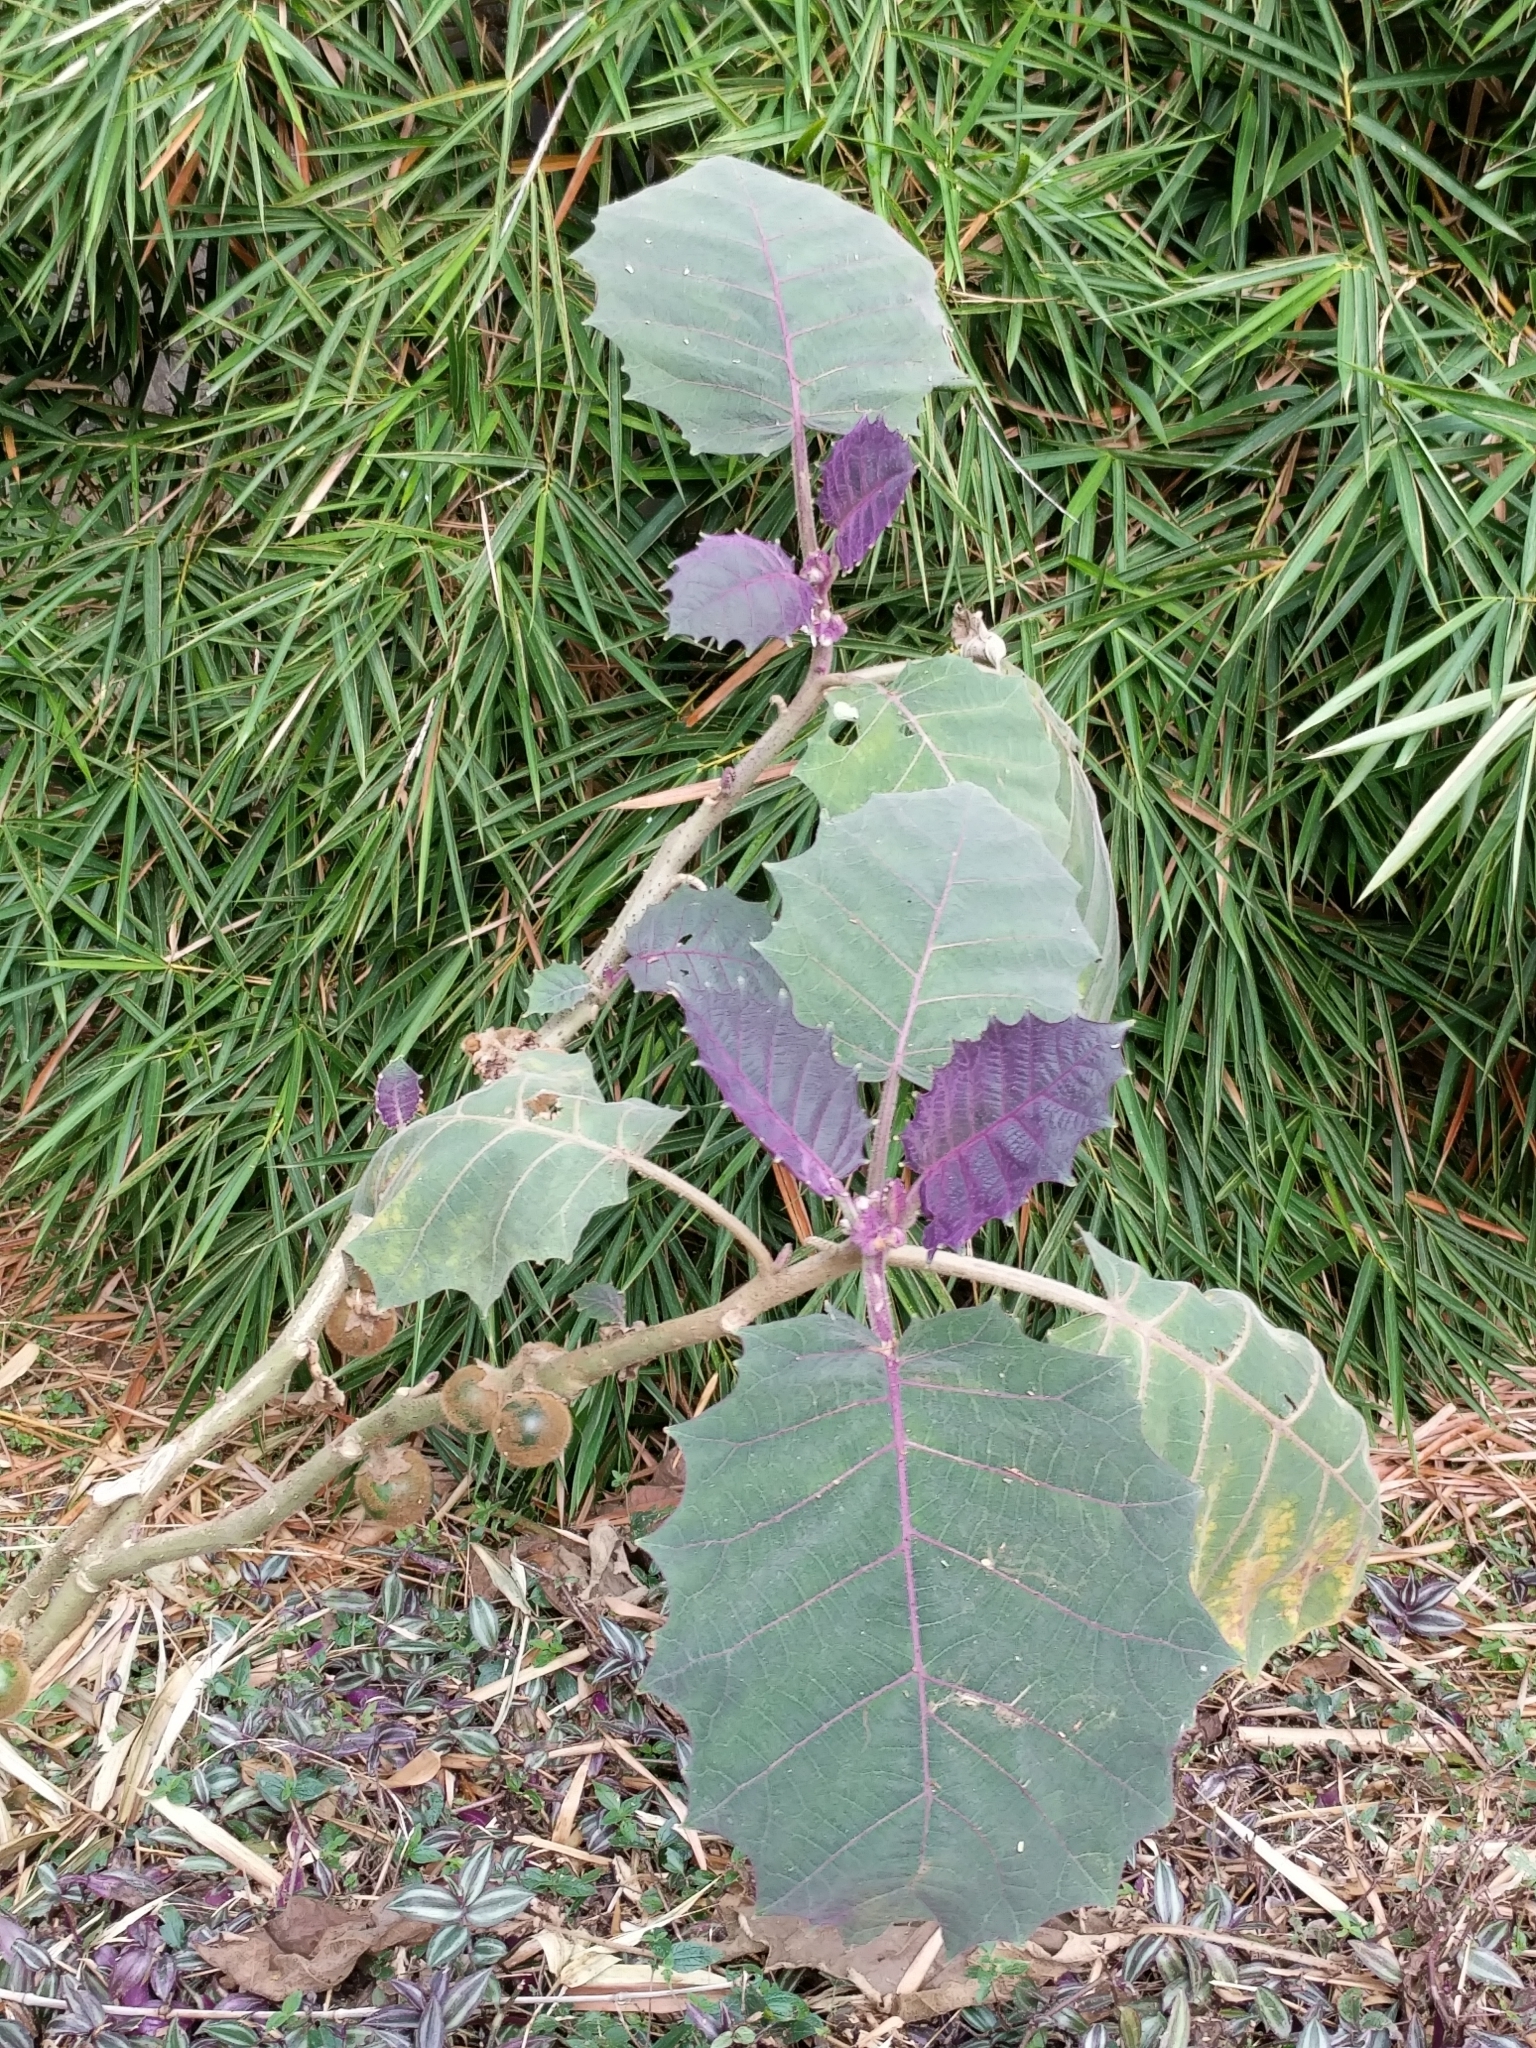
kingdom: Plantae
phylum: Tracheophyta
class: Magnoliopsida
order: Solanales
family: Solanaceae
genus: Solanum
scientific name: Solanum quitoense
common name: Quito-orange
